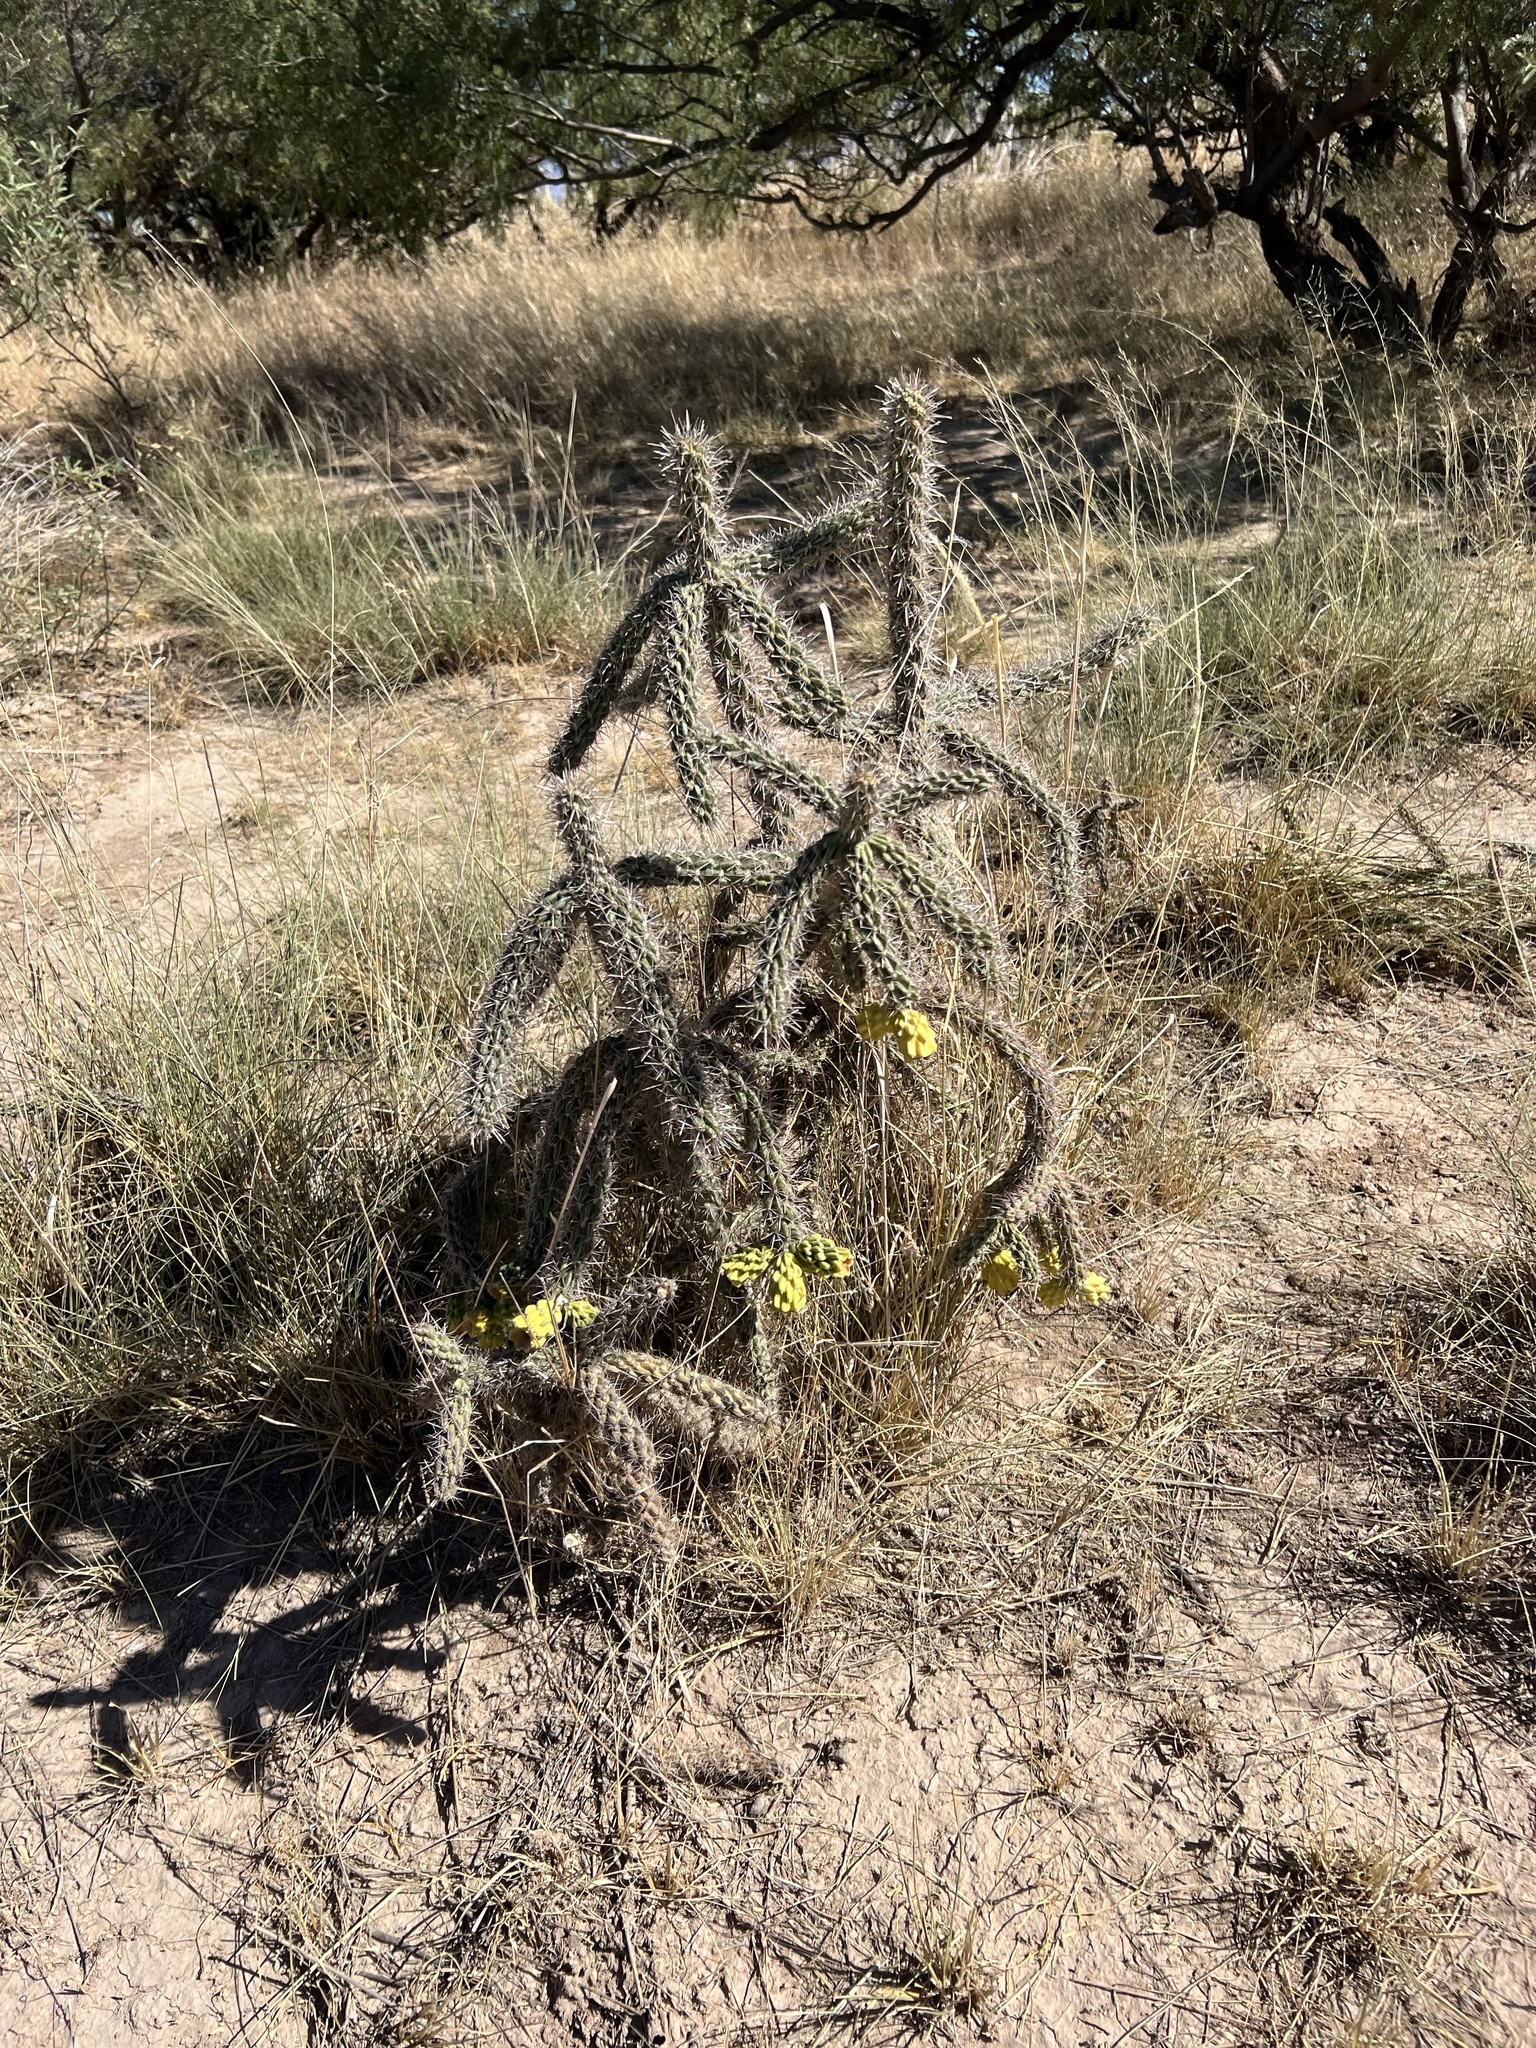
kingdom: Plantae
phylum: Tracheophyta
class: Magnoliopsida
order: Caryophyllales
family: Cactaceae
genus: Cylindropuntia
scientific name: Cylindropuntia imbricata
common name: Candelabrum cactus
